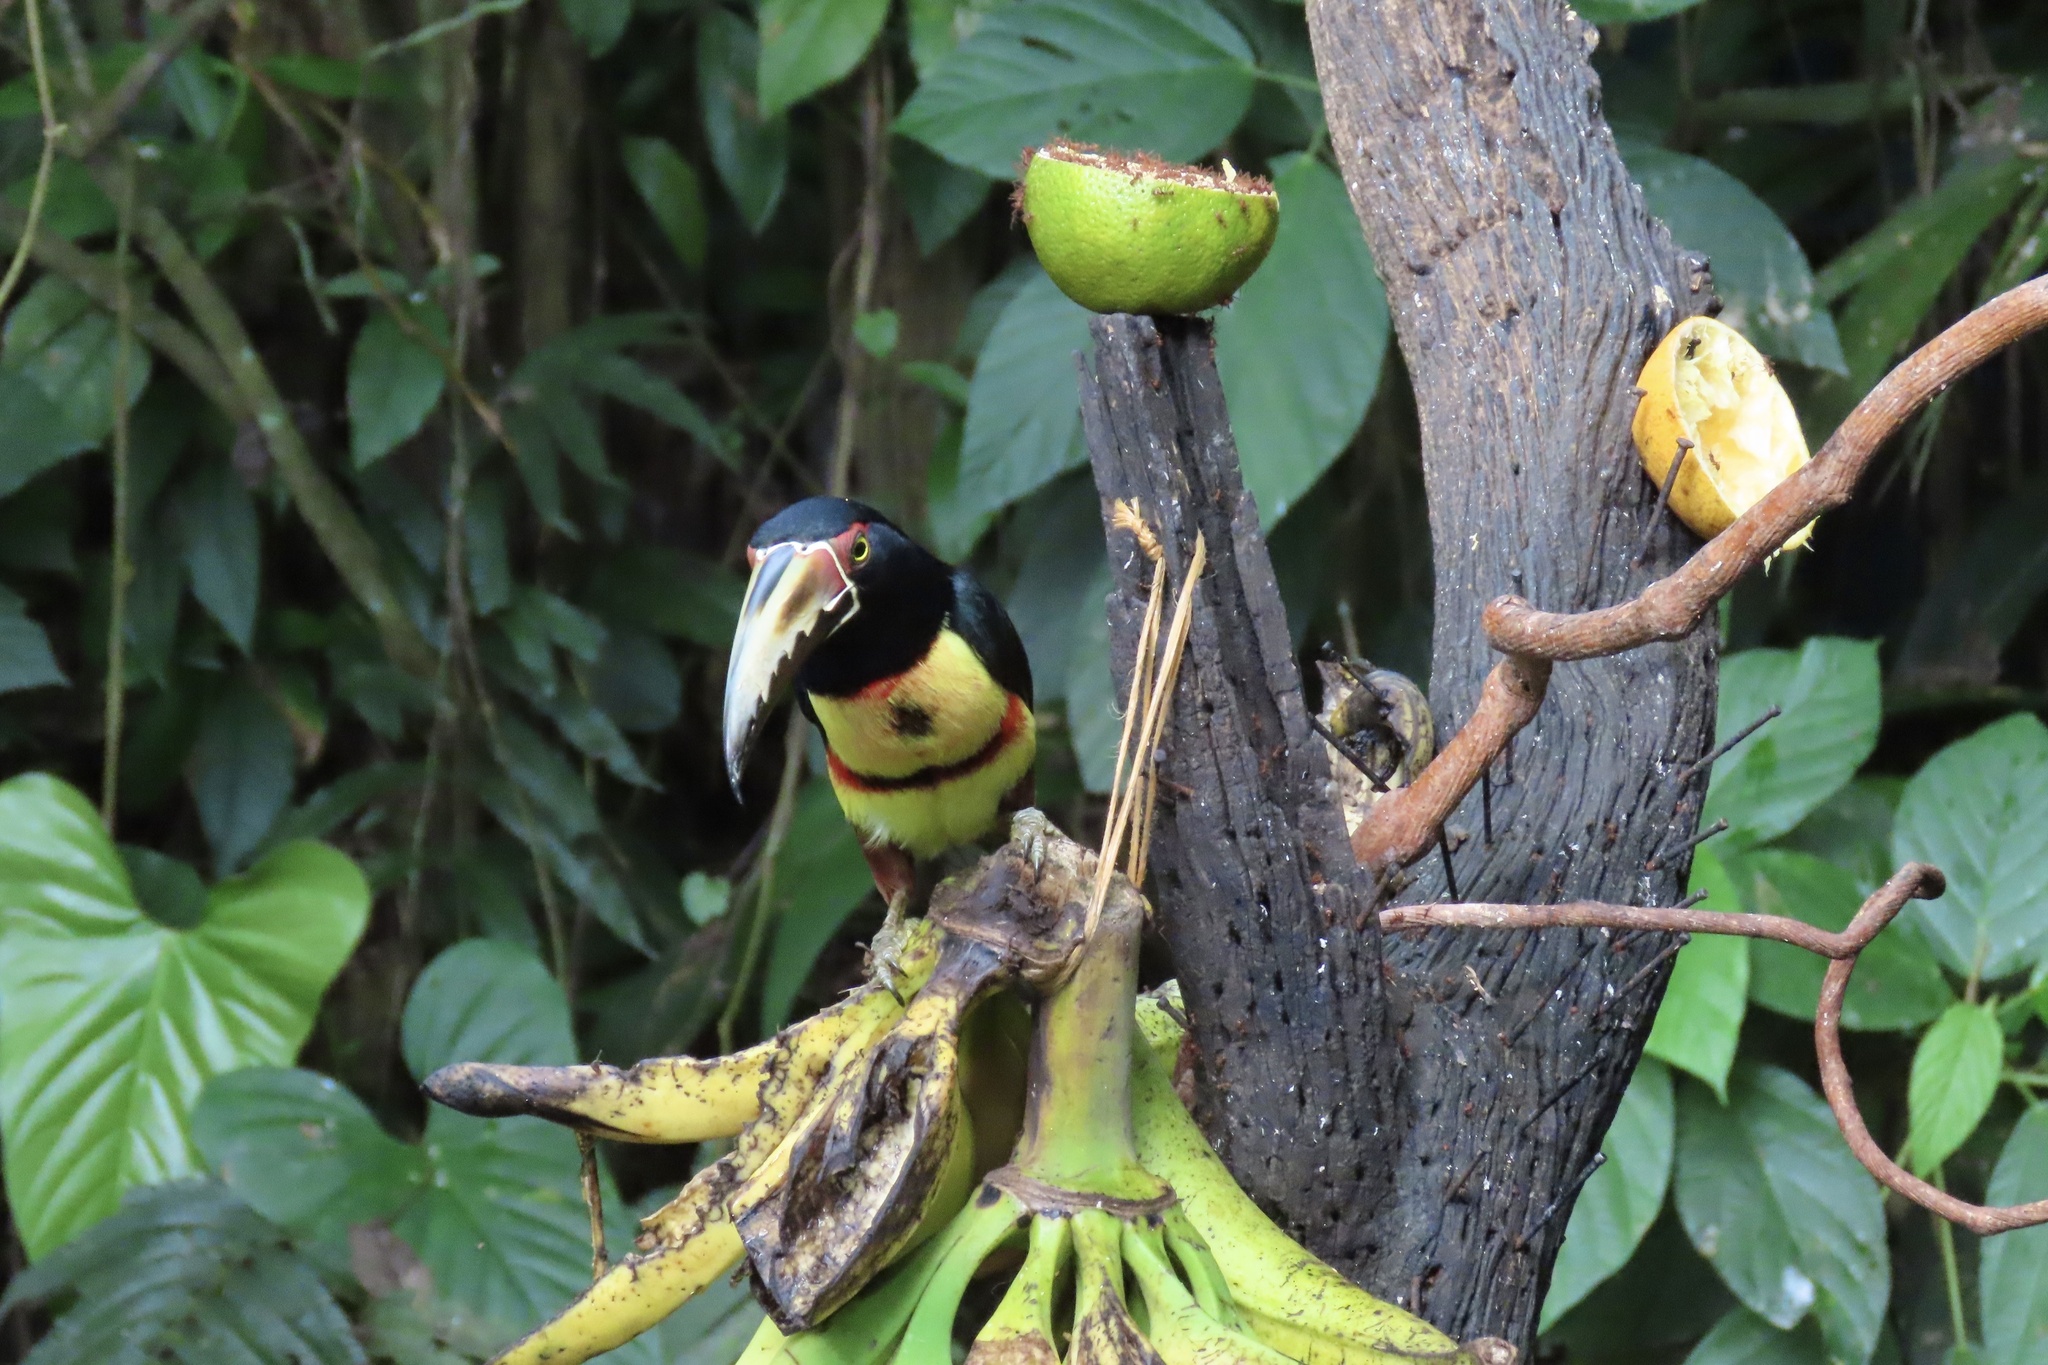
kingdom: Animalia
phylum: Chordata
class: Aves
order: Piciformes
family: Ramphastidae
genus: Pteroglossus
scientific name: Pteroglossus torquatus
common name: Collared aracari
